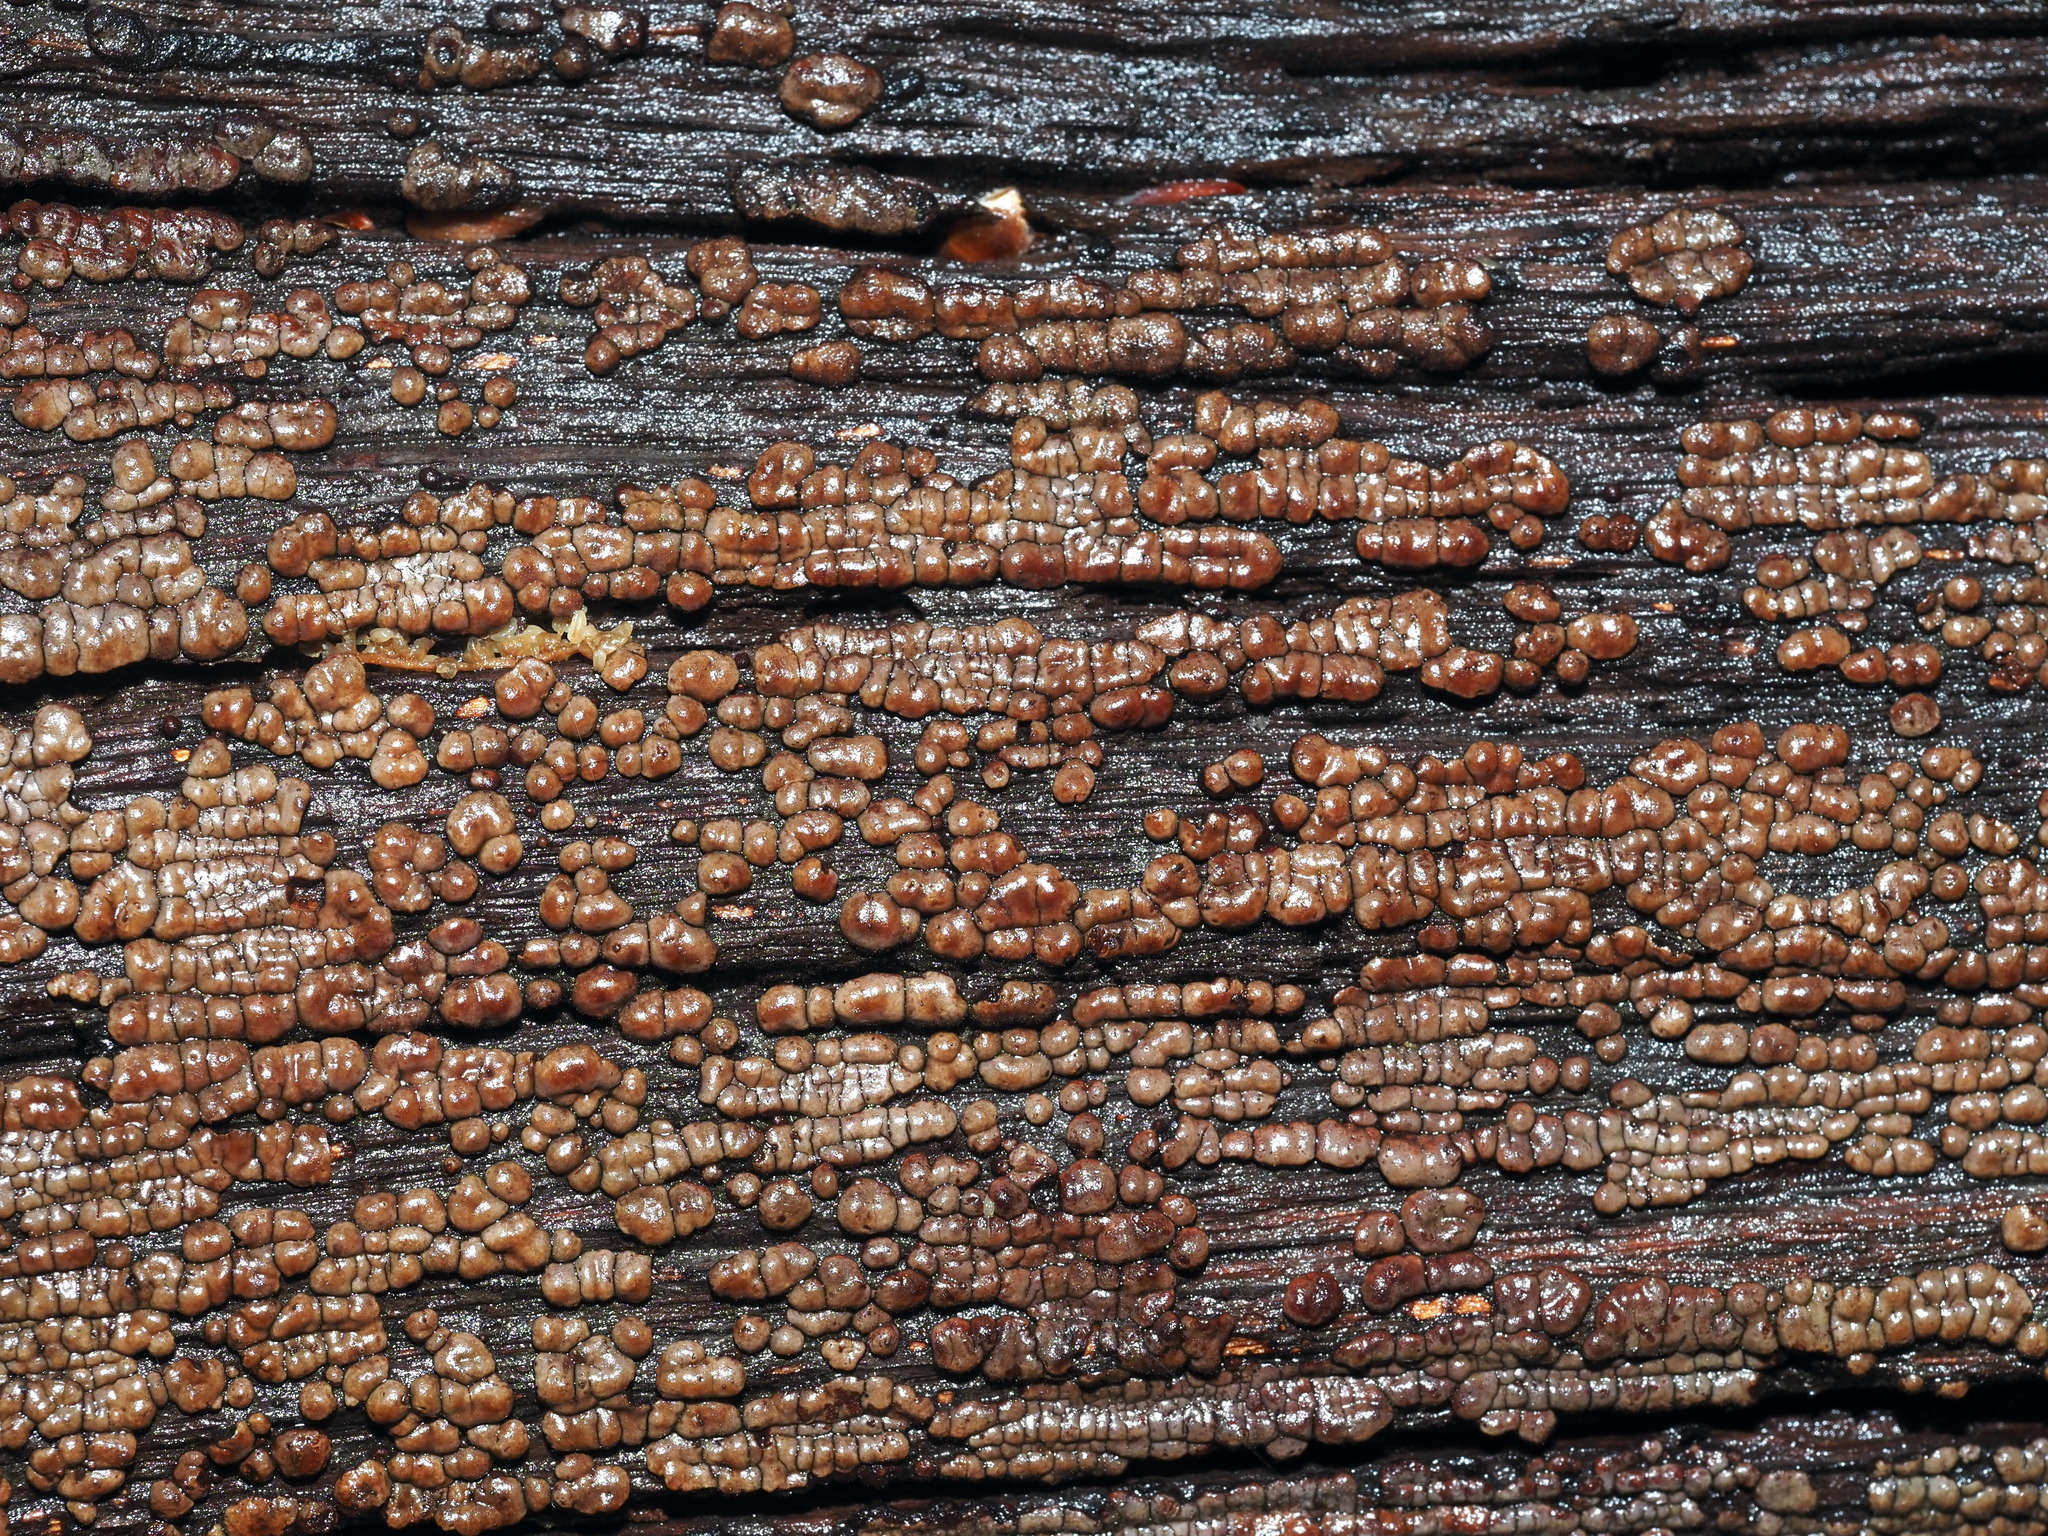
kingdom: Fungi
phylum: Basidiomycota
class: Agaricomycetes
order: Russulales
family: Stereaceae
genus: Xylobolus
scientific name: Xylobolus frustulatus
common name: Ceramic parchment
